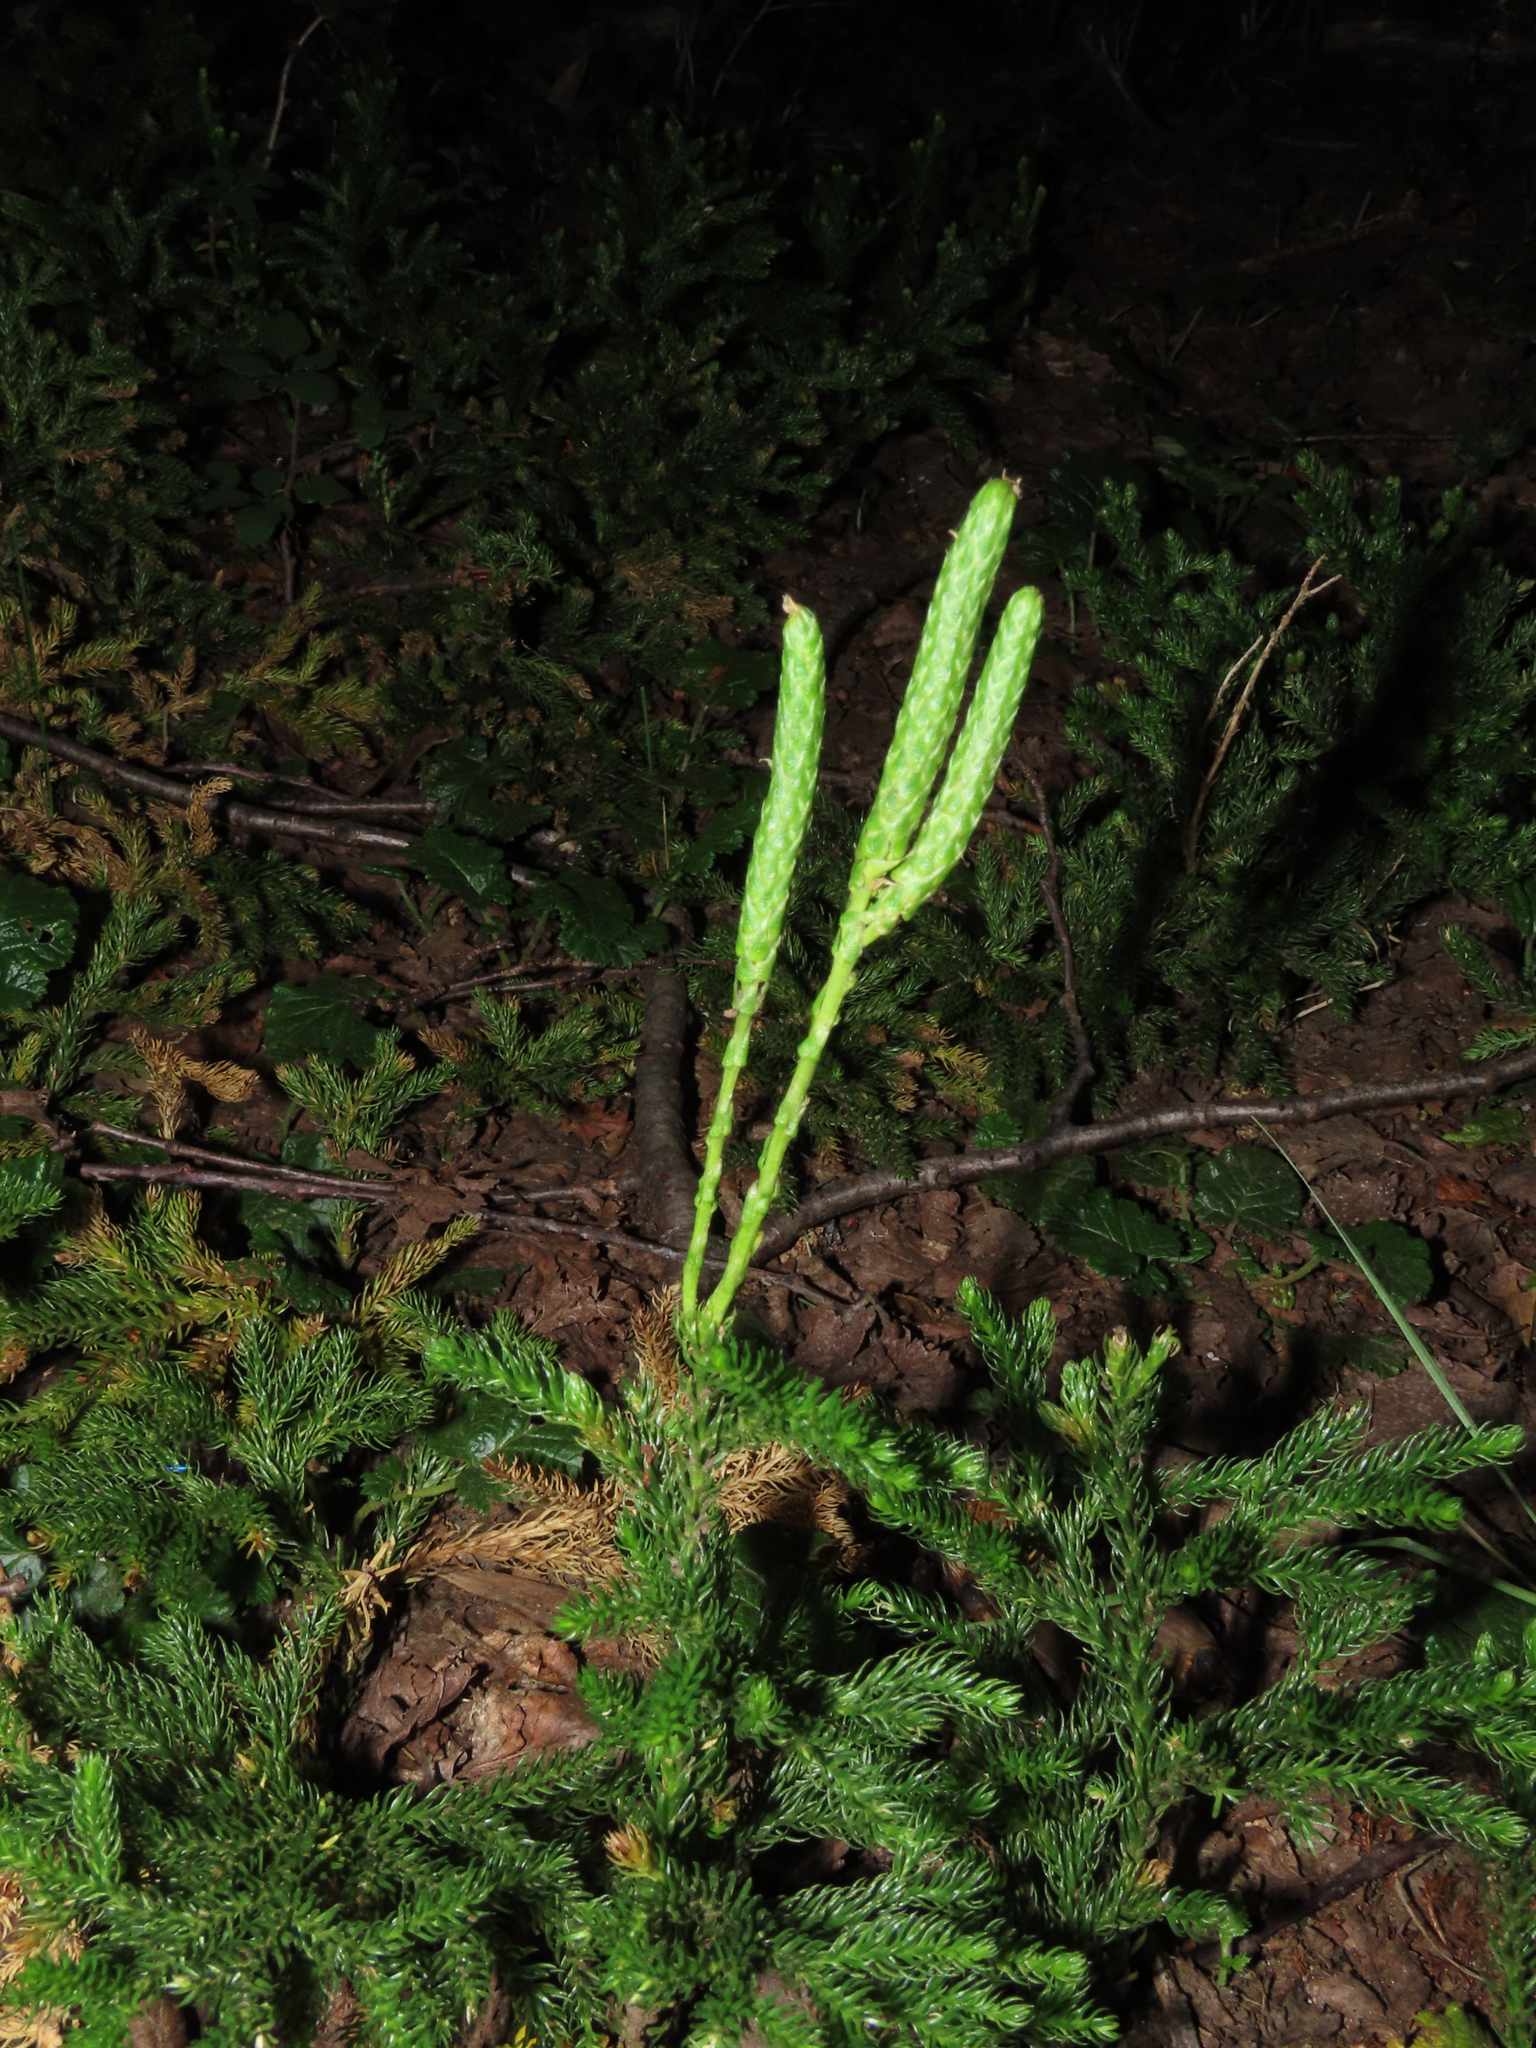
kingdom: Plantae
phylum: Tracheophyta
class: Lycopodiopsida
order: Lycopodiales
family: Lycopodiaceae
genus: Austrolycopodium
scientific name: Austrolycopodium magellanicum
